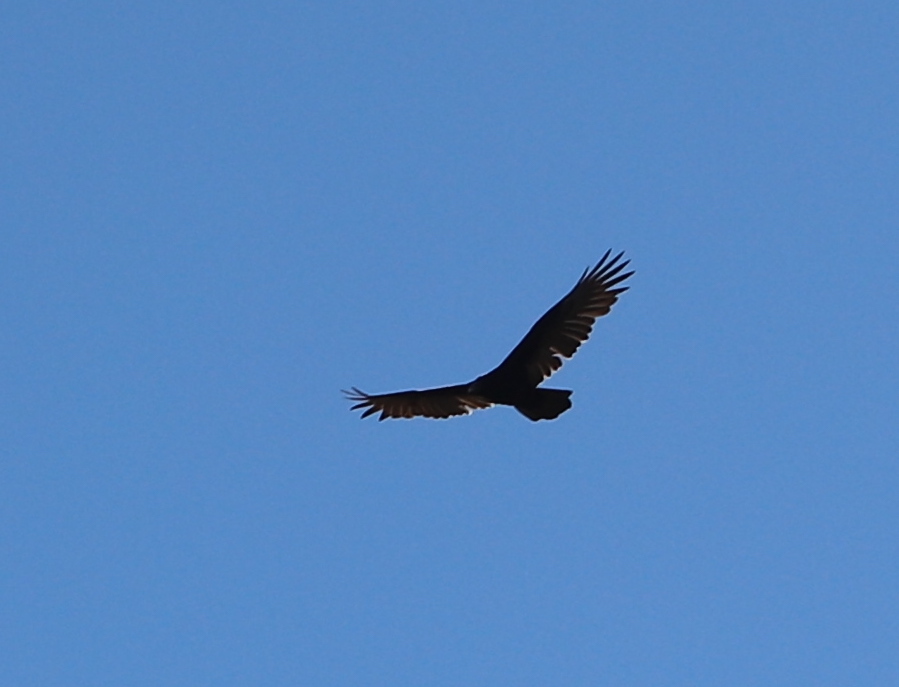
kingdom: Animalia
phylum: Chordata
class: Aves
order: Accipitriformes
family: Cathartidae
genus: Cathartes
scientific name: Cathartes aura
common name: Turkey vulture
